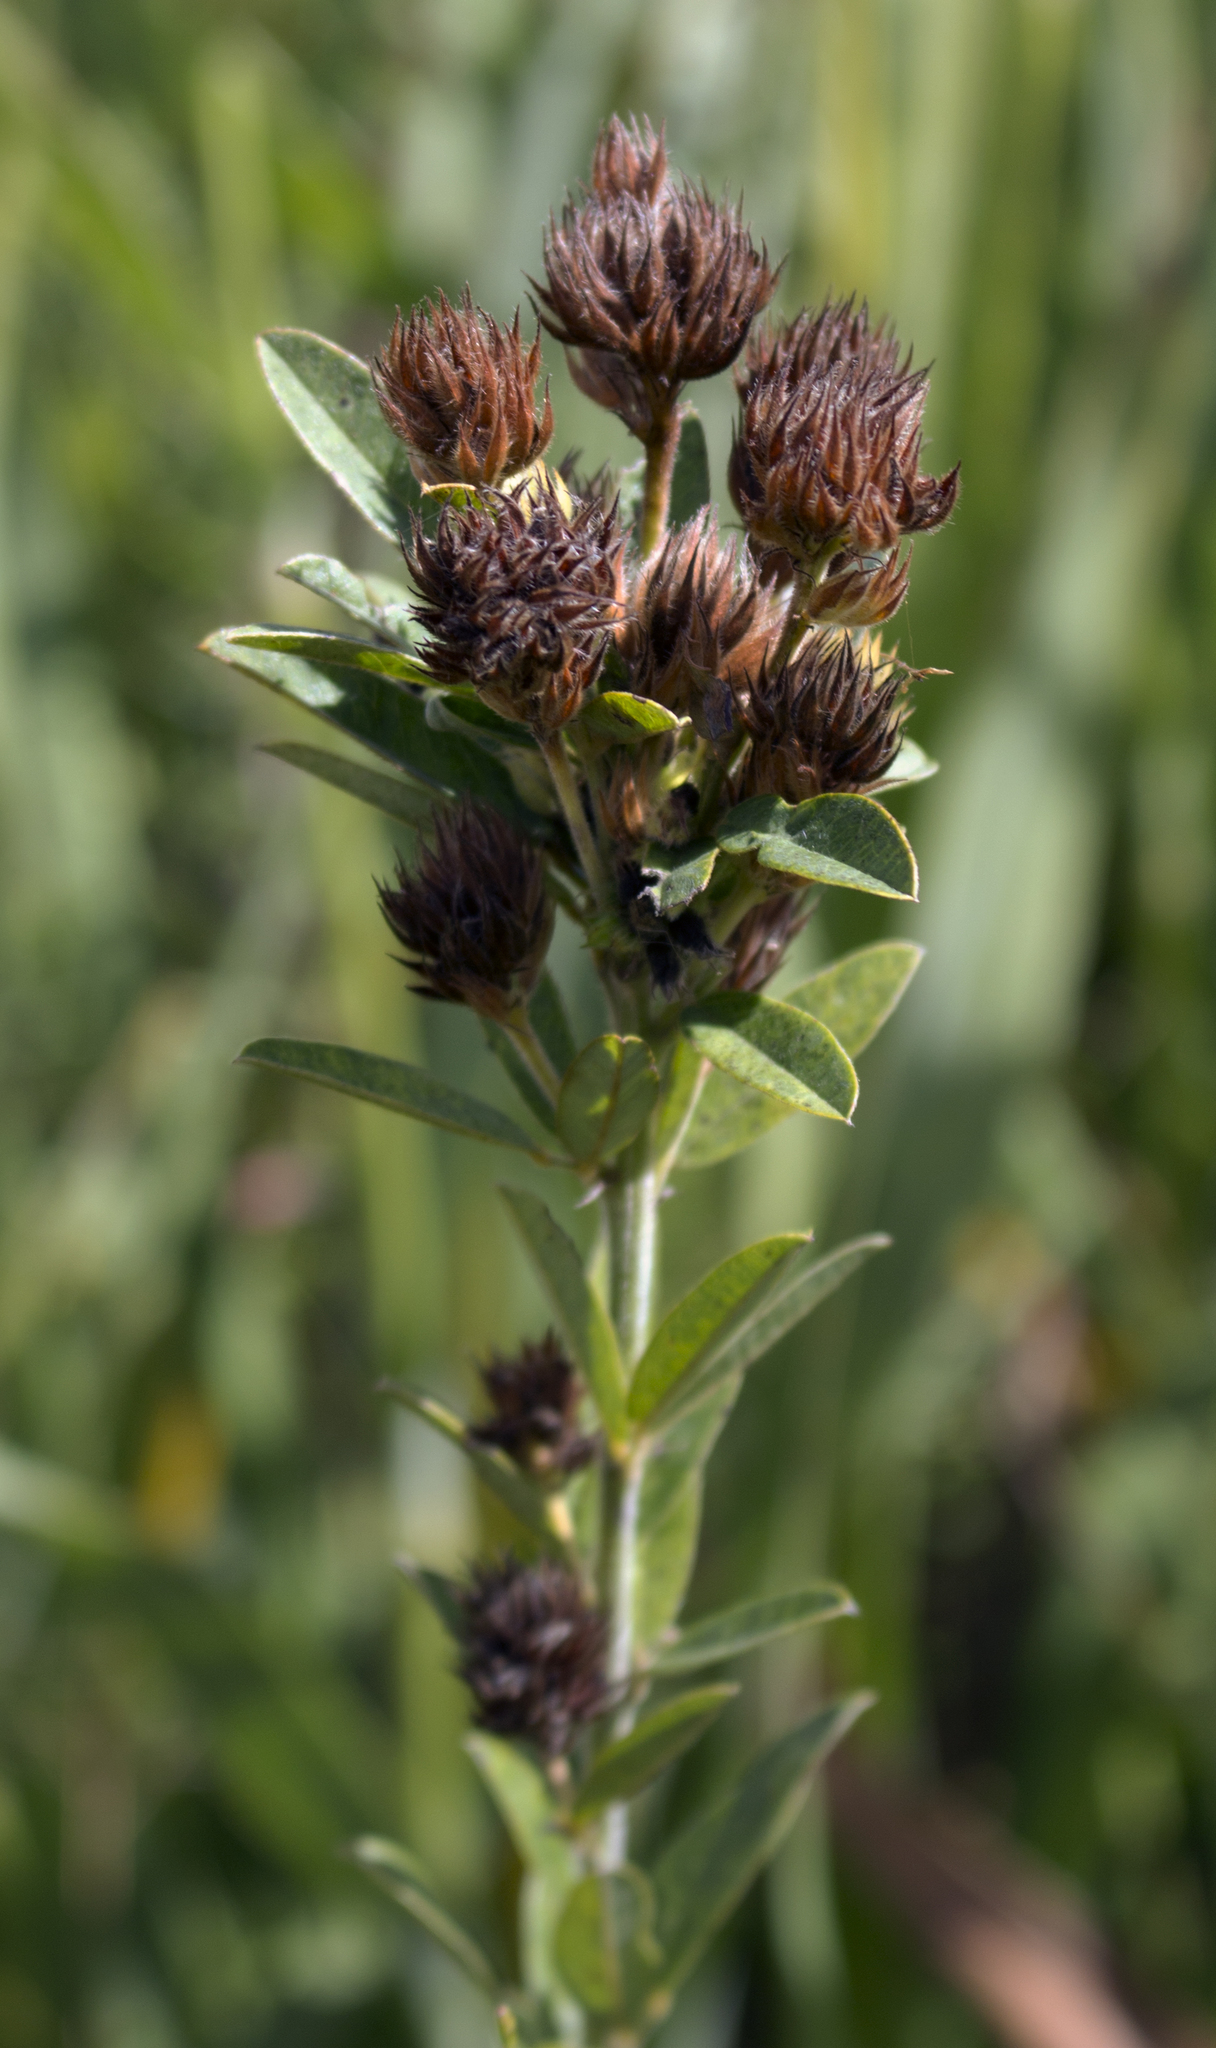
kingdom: Plantae
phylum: Tracheophyta
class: Magnoliopsida
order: Fabales
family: Fabaceae
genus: Lespedeza
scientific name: Lespedeza capitata
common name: Dusty clover
